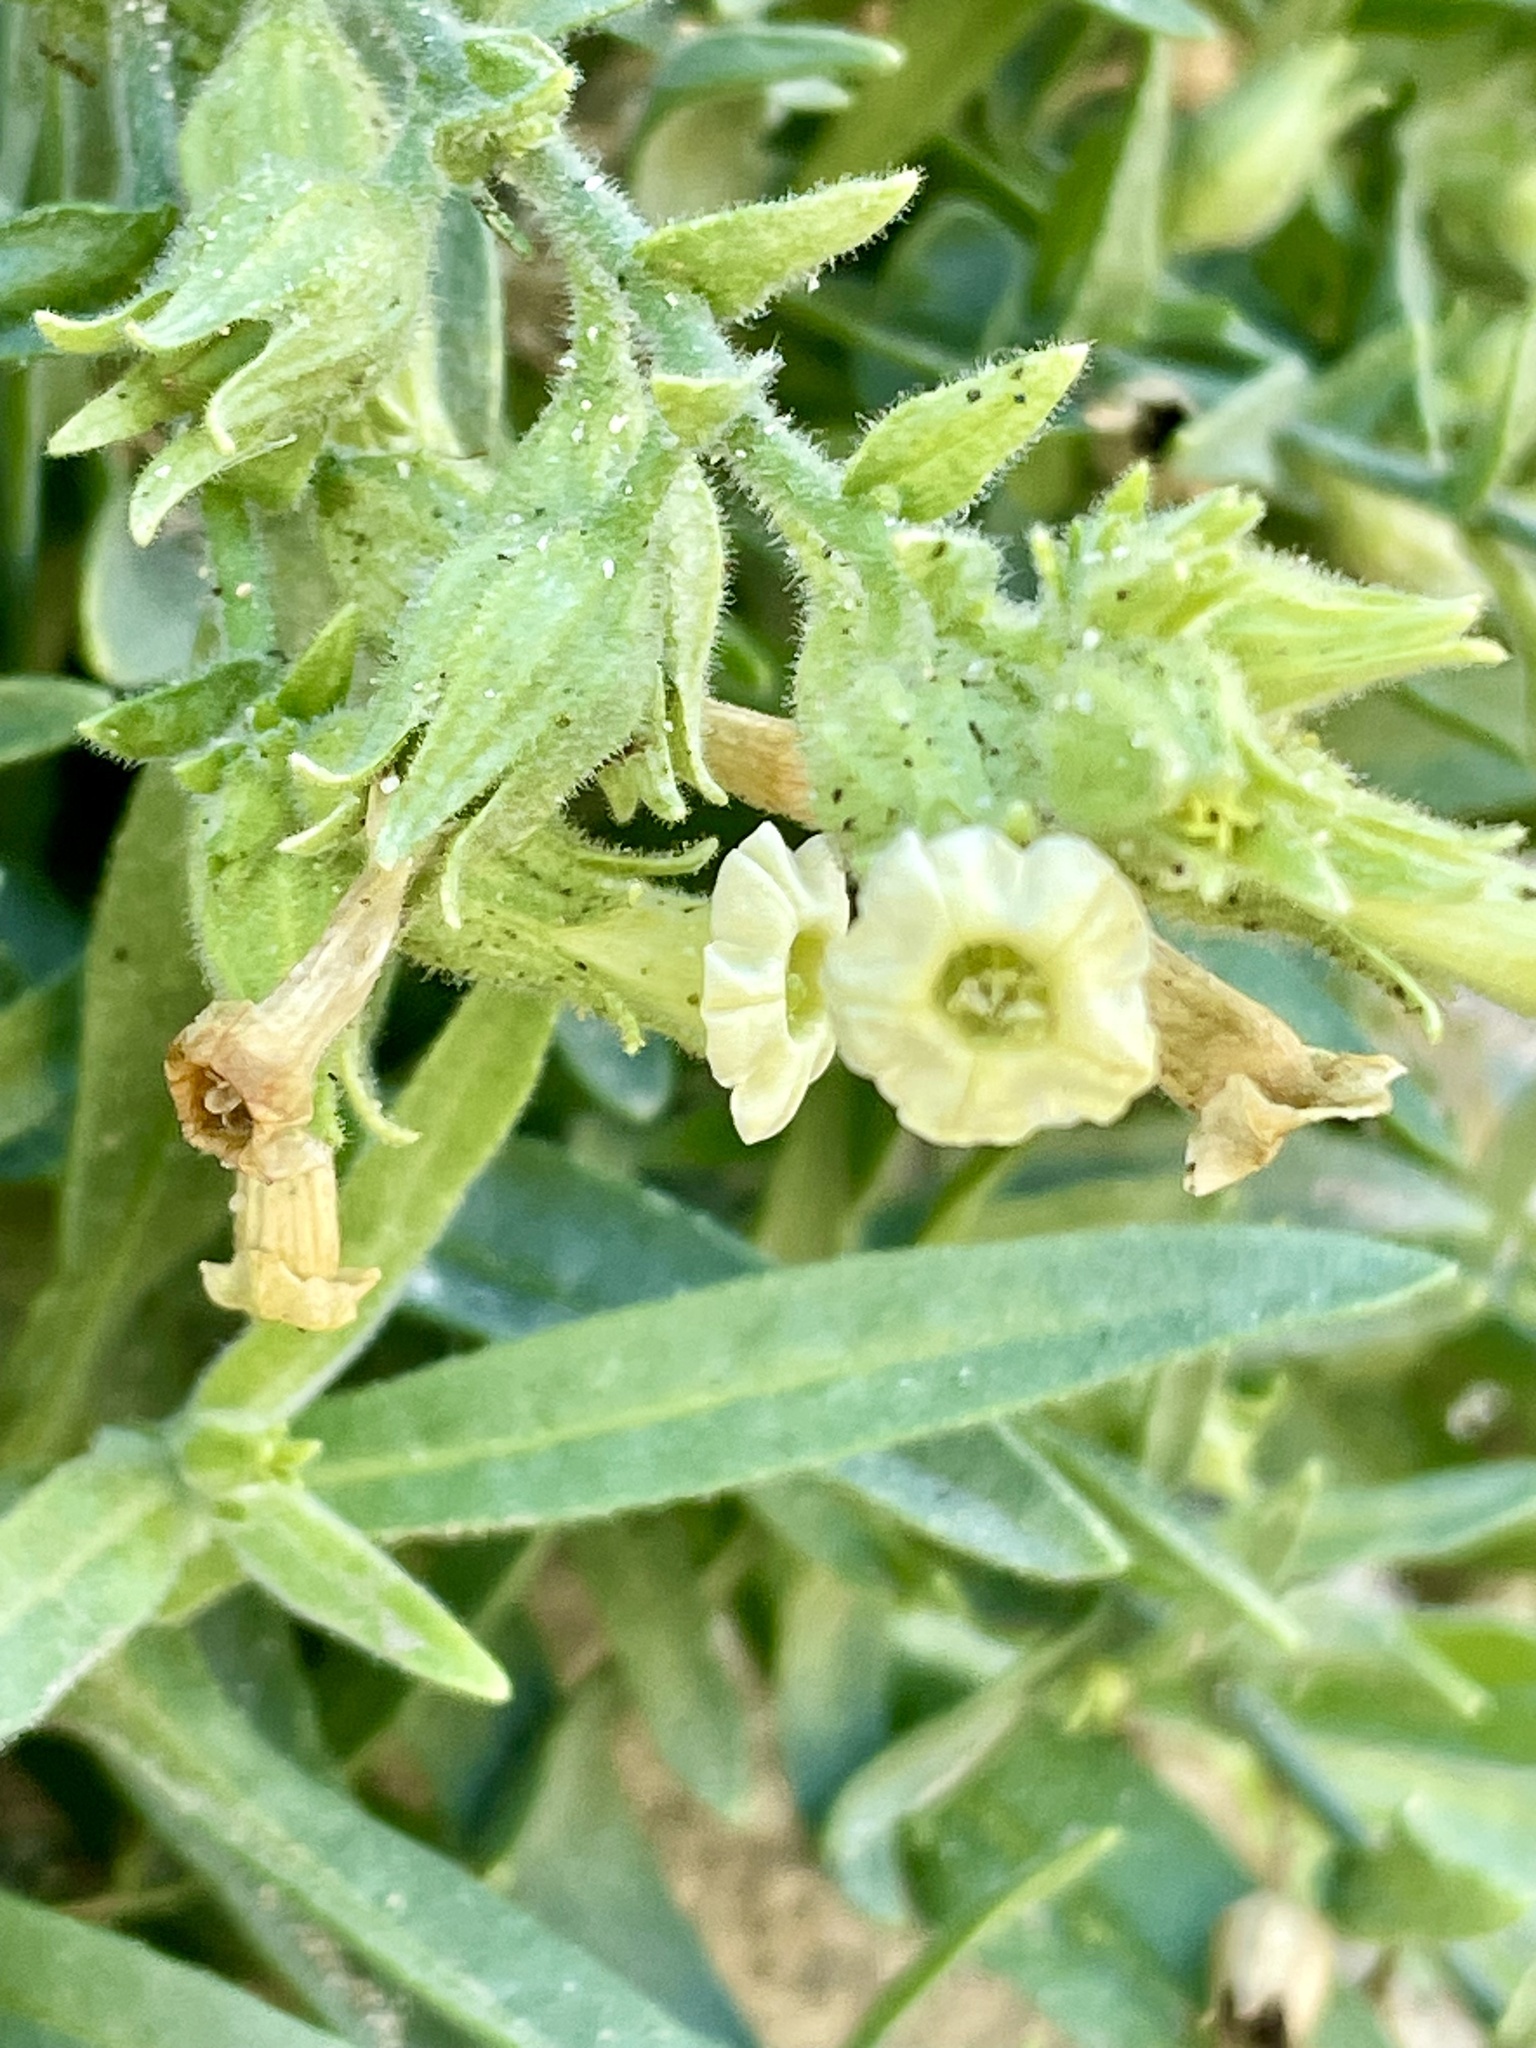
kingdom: Plantae
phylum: Tracheophyta
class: Magnoliopsida
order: Solanales
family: Solanaceae
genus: Nicotiana
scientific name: Nicotiana obtusifolia
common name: Desert tobacco
